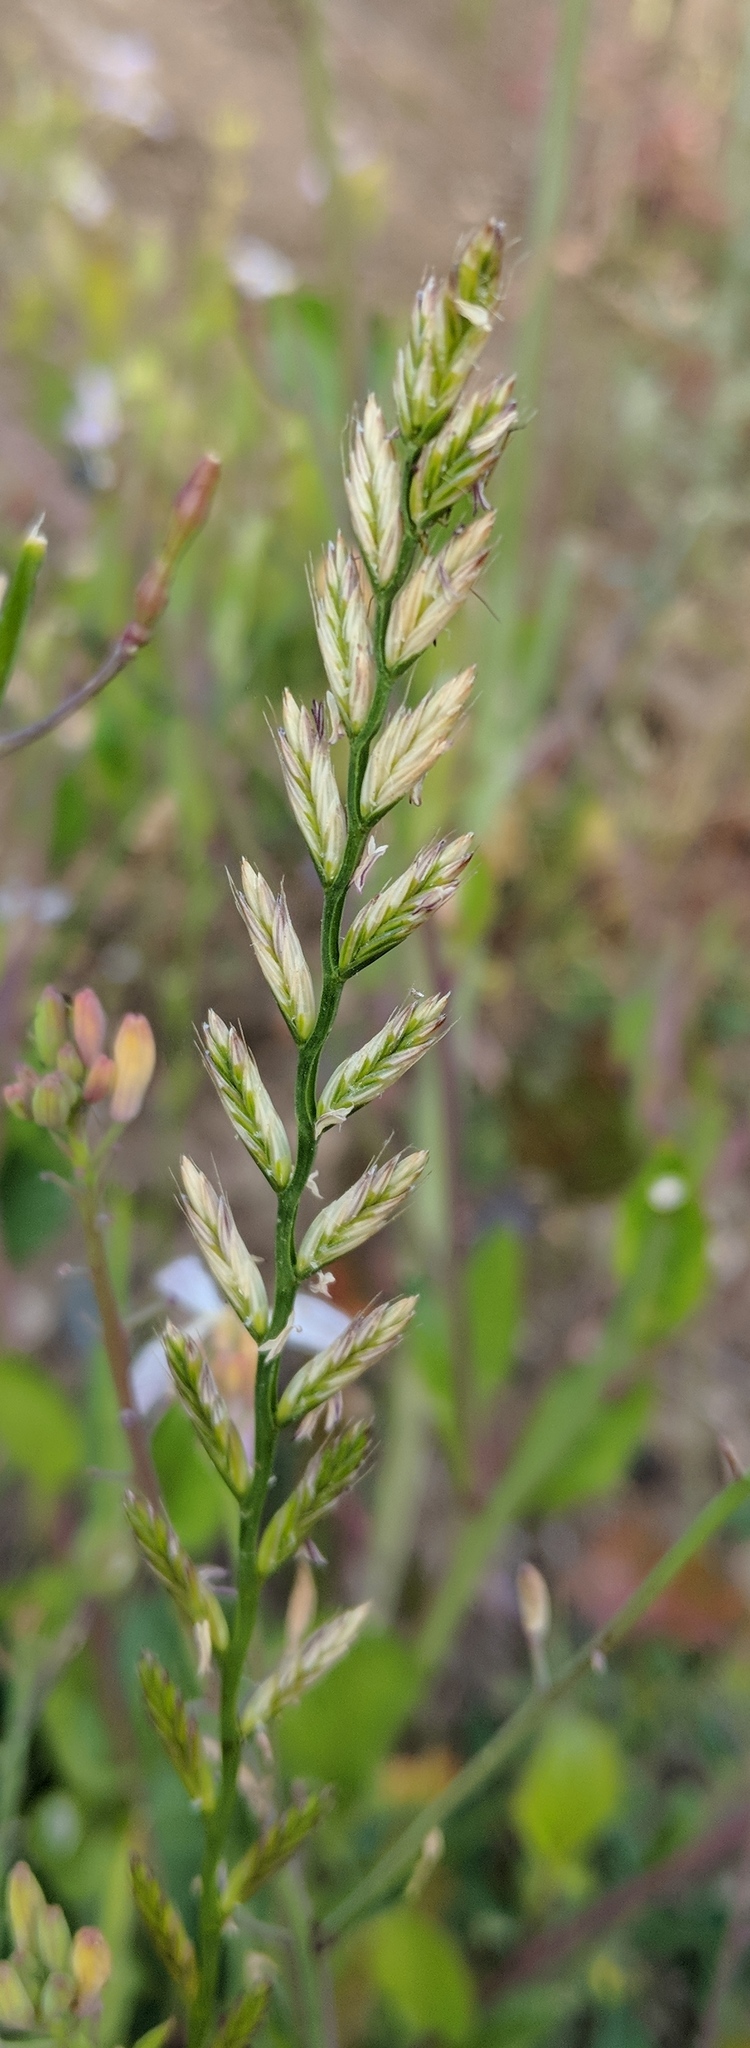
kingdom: Plantae
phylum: Tracheophyta
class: Liliopsida
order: Poales
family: Poaceae
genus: Lolium
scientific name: Lolium multiflorum
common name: Annual ryegrass
